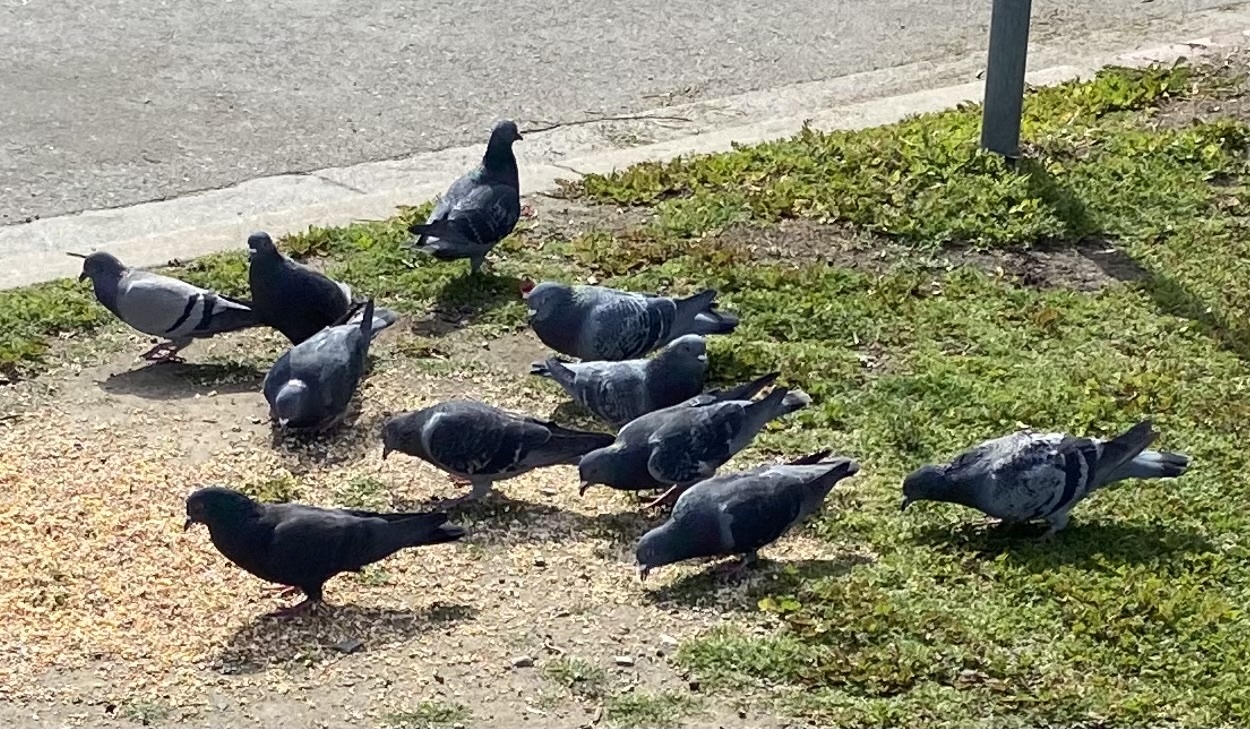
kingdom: Animalia
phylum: Chordata
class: Aves
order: Columbiformes
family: Columbidae
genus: Columba
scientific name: Columba livia
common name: Rock pigeon
